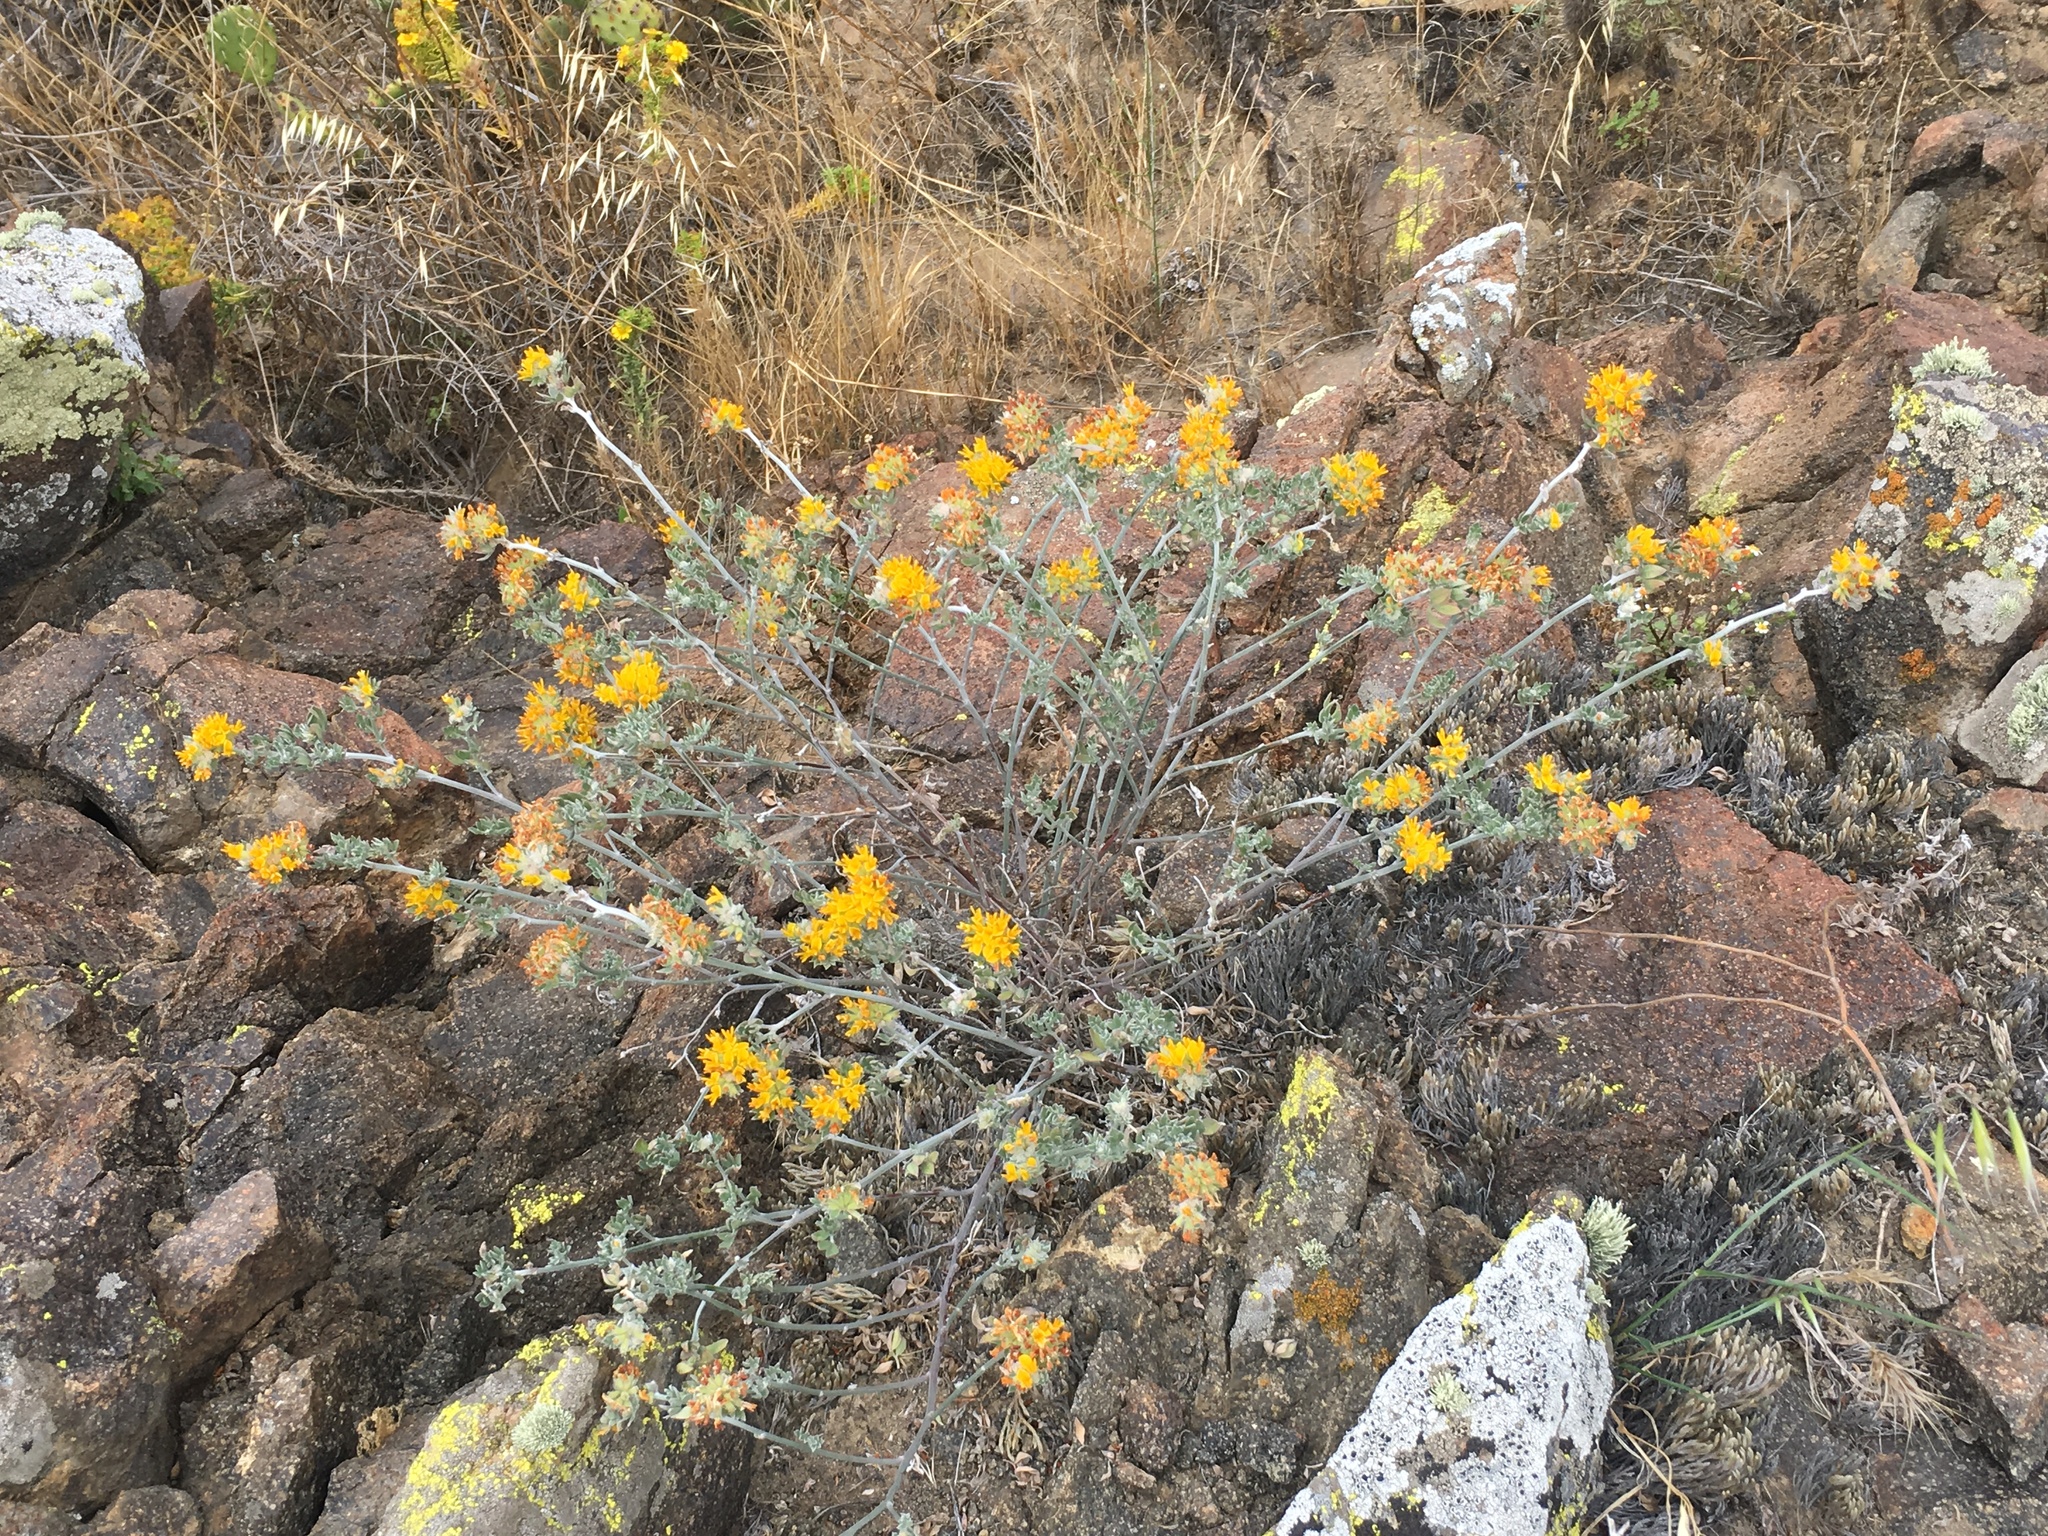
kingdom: Plantae
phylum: Tracheophyta
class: Magnoliopsida
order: Fabales
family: Fabaceae
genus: Acmispon
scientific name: Acmispon argophyllus
